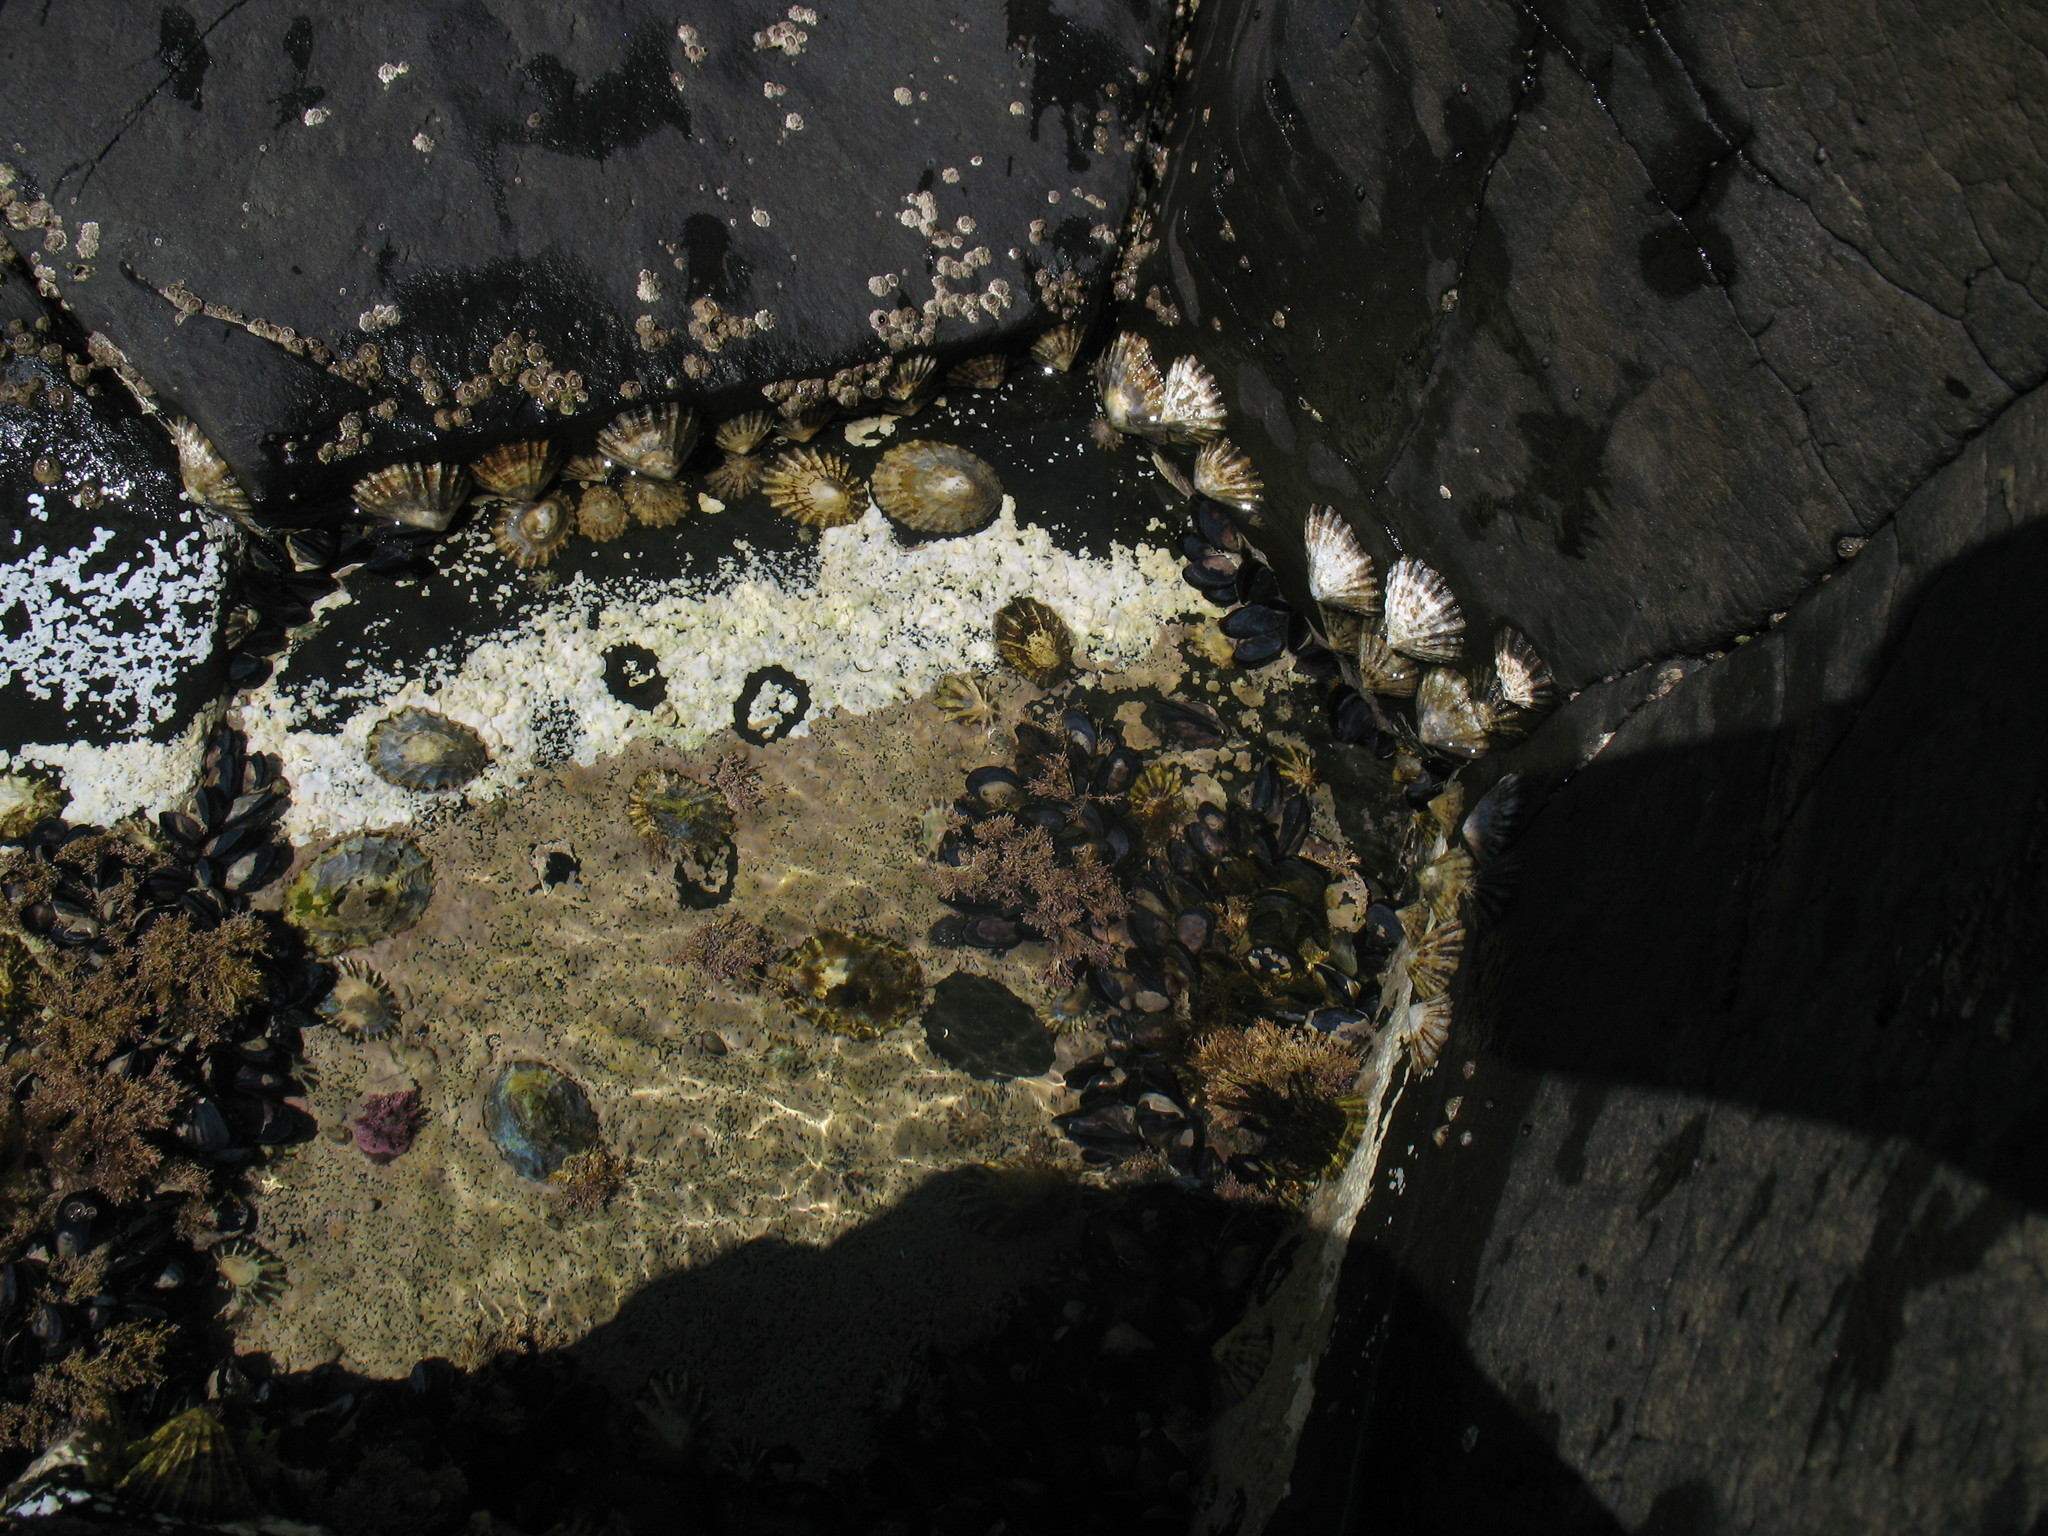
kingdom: Animalia
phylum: Mollusca
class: Gastropoda
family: Patellidae
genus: Patella
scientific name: Patella vulgata
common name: Common limpet
